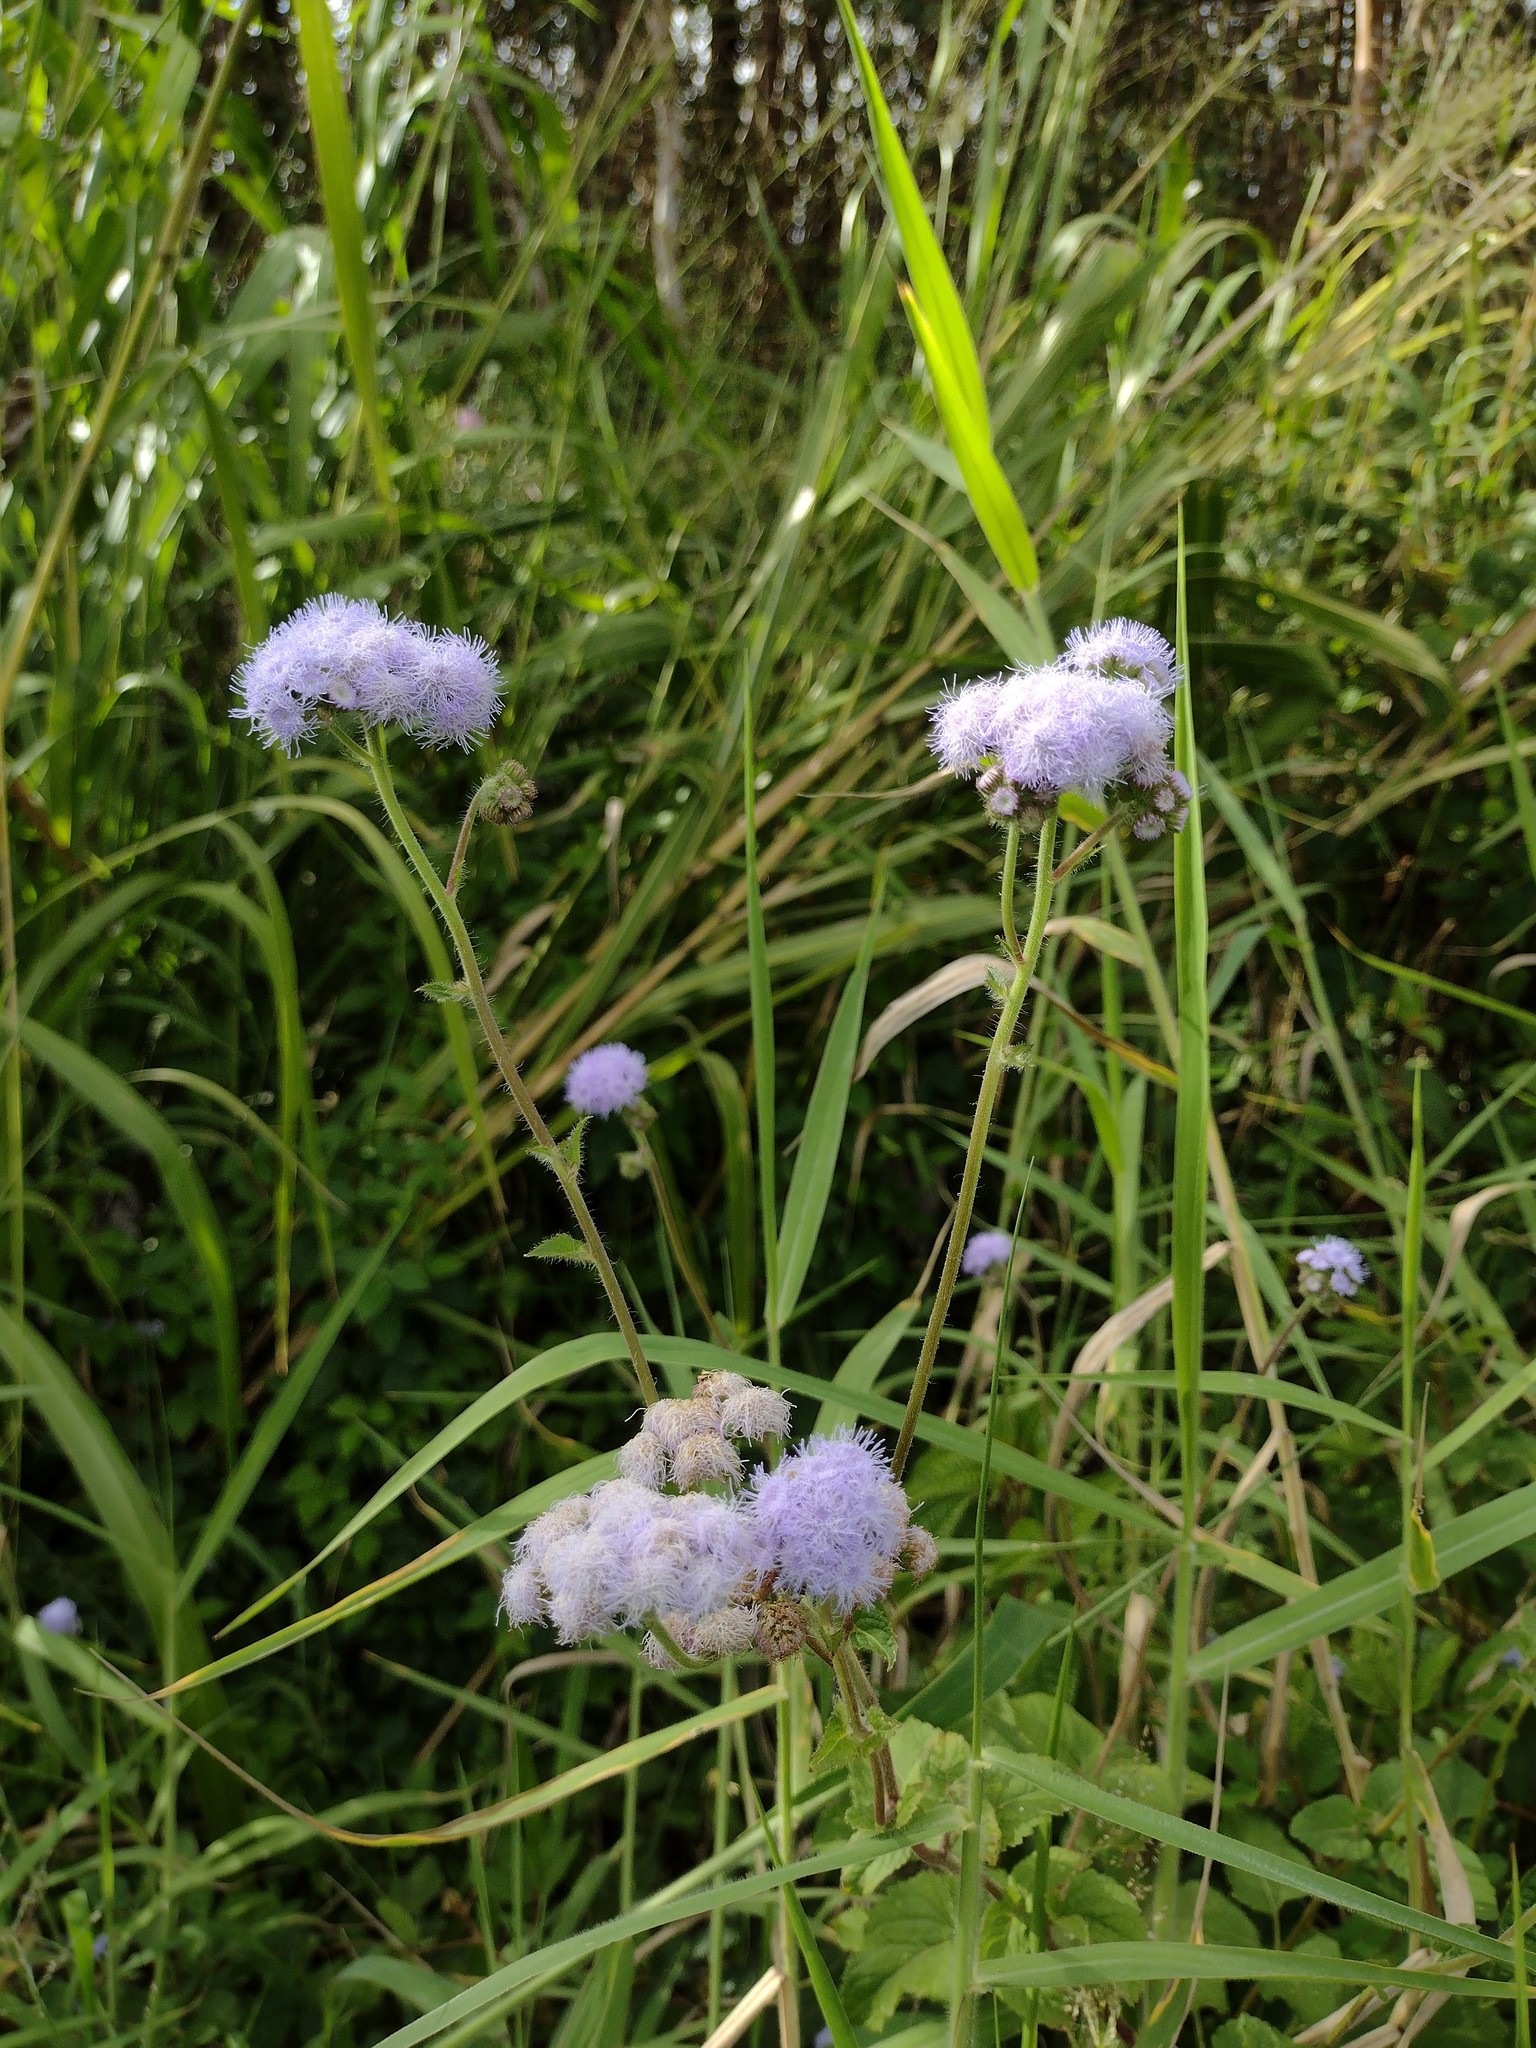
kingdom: Plantae
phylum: Tracheophyta
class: Magnoliopsida
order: Asterales
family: Asteraceae
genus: Ageratum
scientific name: Ageratum houstonianum
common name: Bluemink
